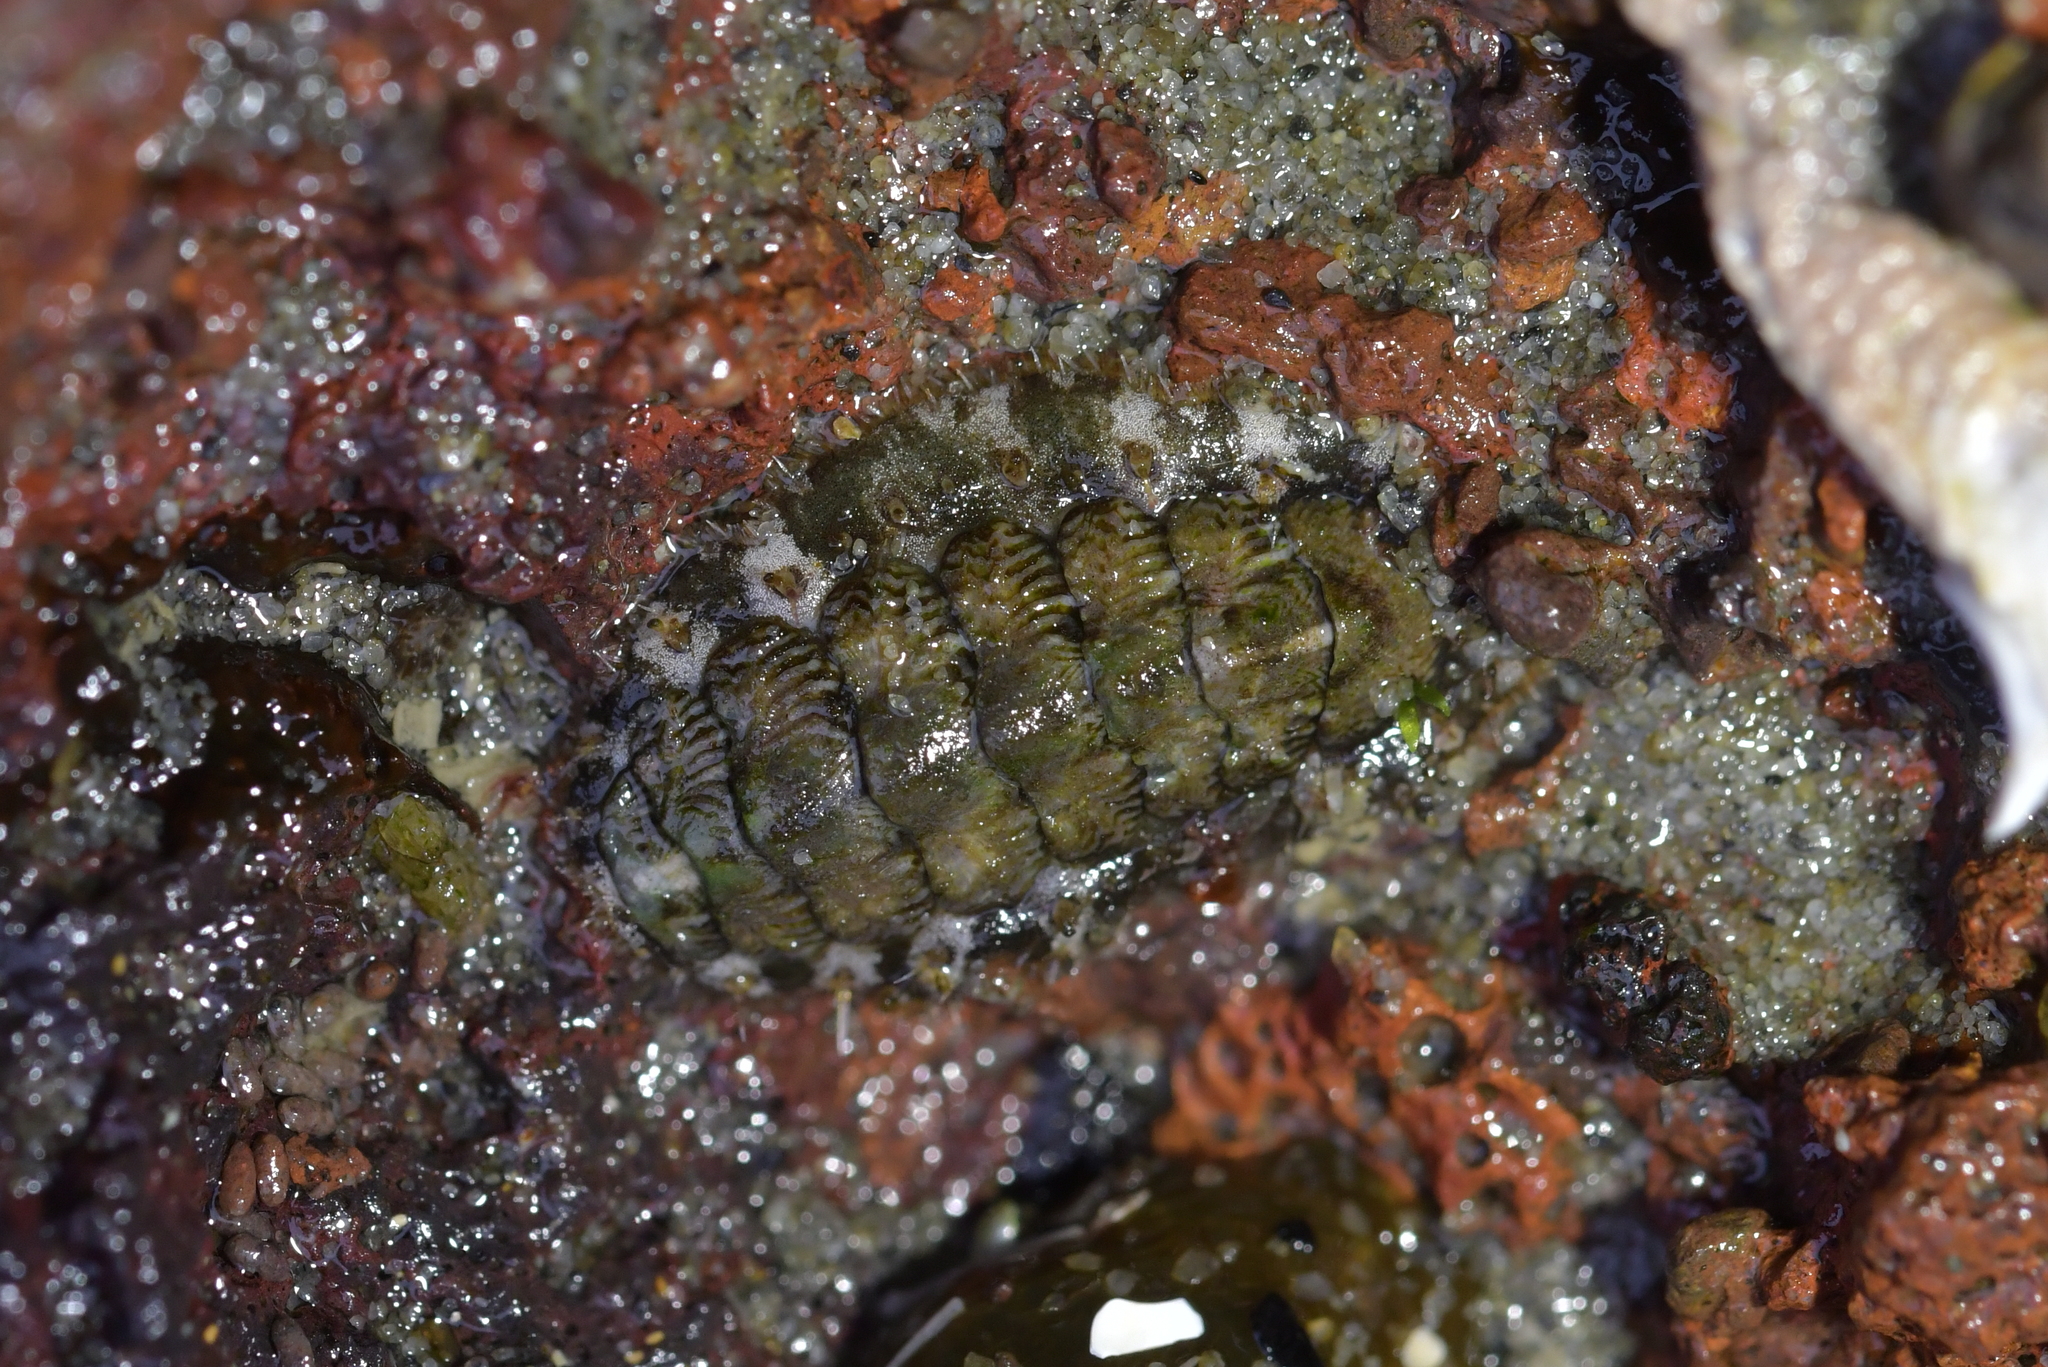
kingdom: Animalia
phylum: Mollusca
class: Polyplacophora
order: Chitonida
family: Mopaliidae
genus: Plaxiphora
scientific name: Plaxiphora caelata
